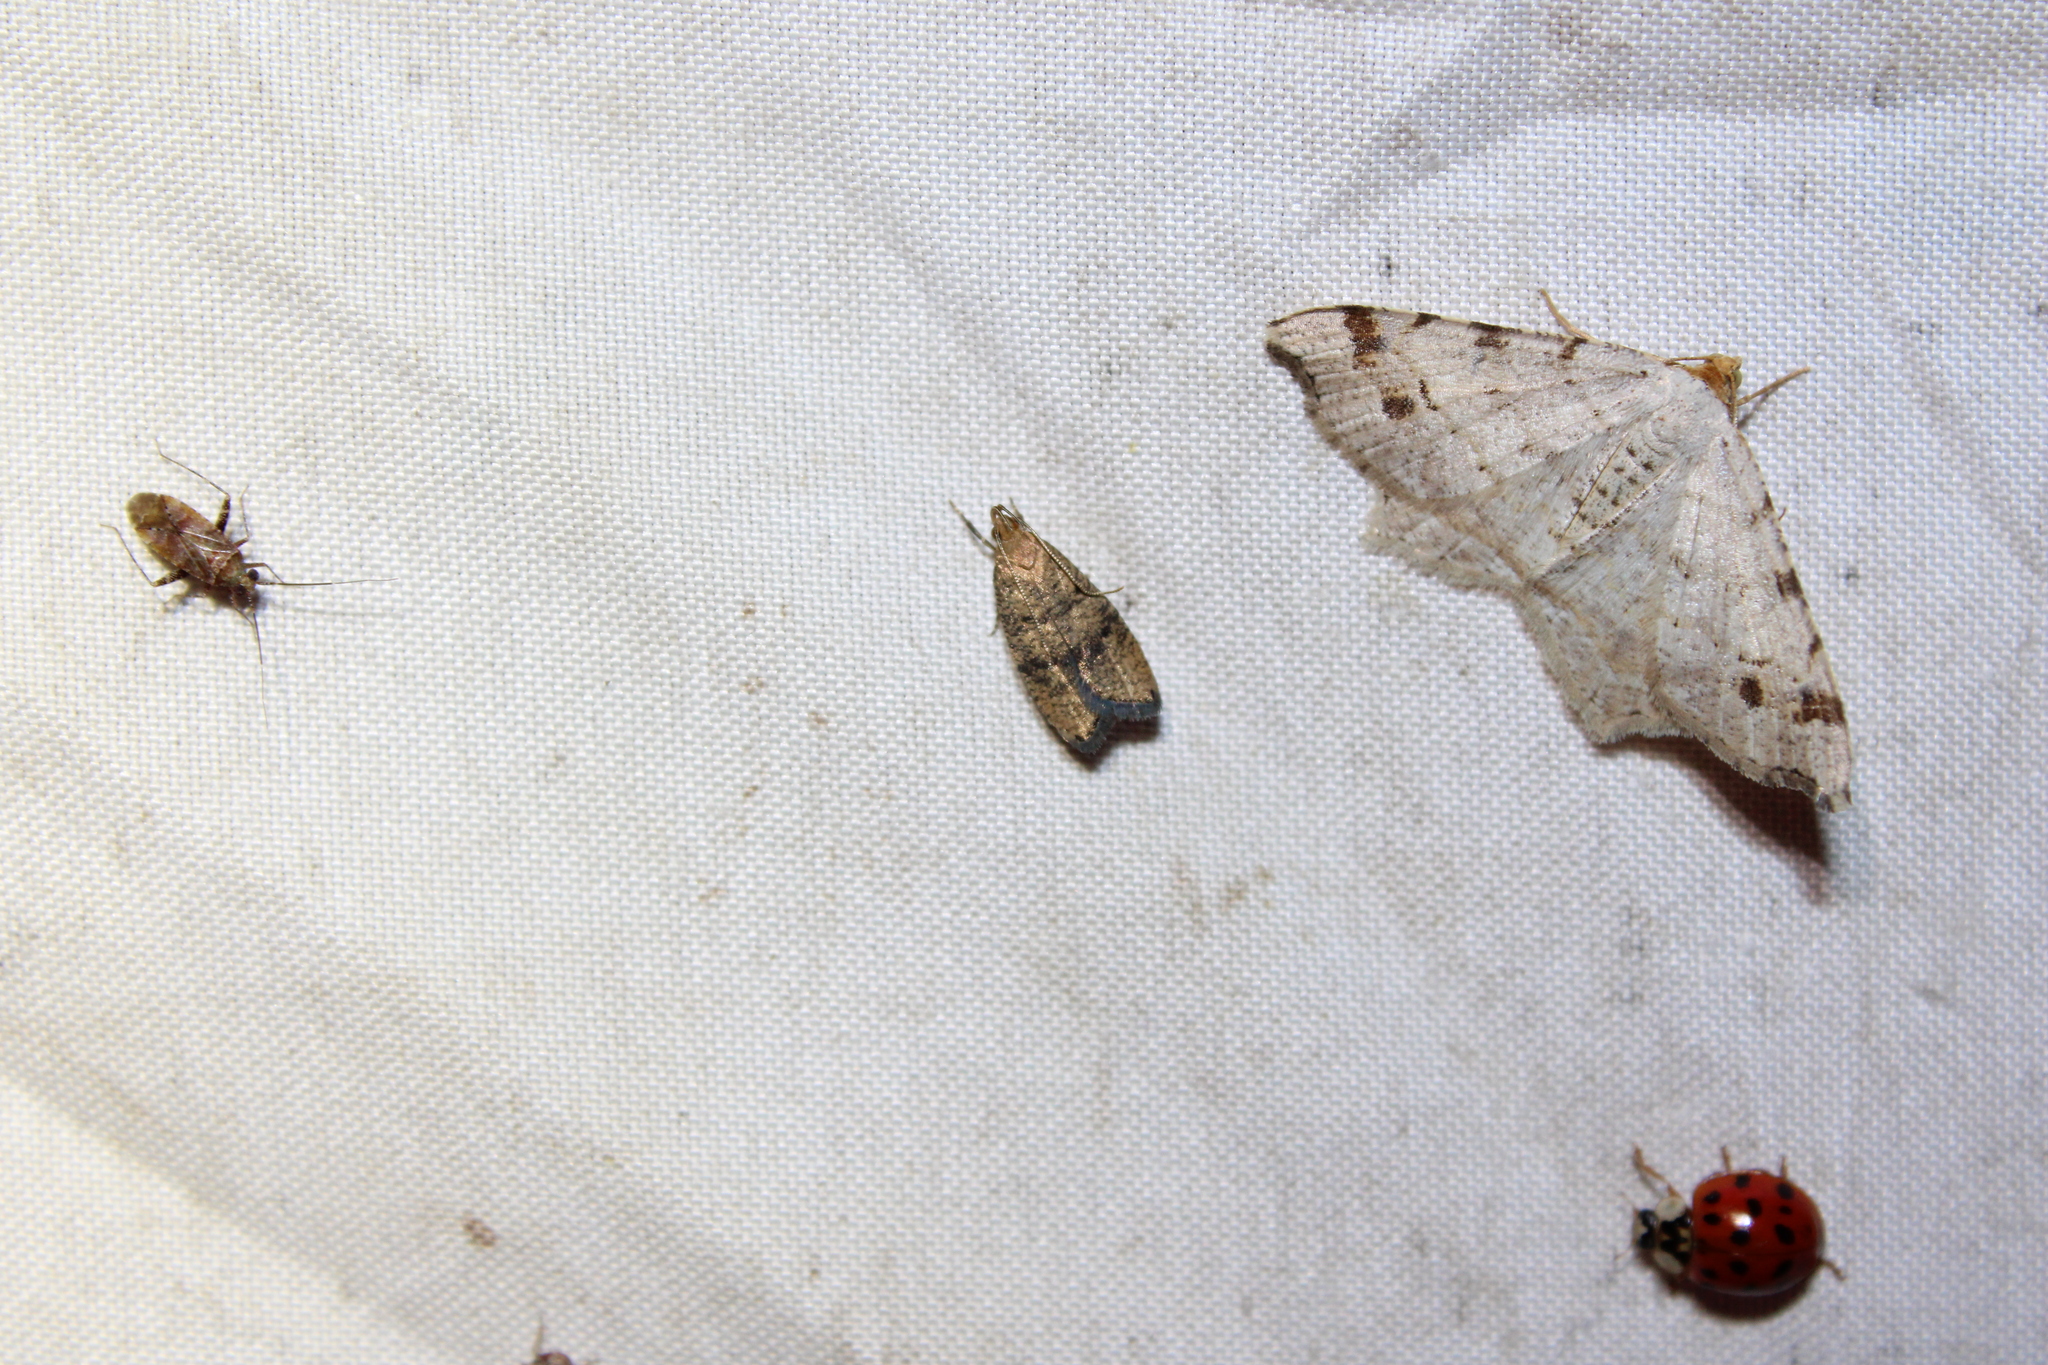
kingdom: Animalia
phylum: Arthropoda
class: Insecta
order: Lepidoptera
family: Depressariidae
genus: Psilocorsis
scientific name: Psilocorsis quercicella
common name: Oak leaftier moth
